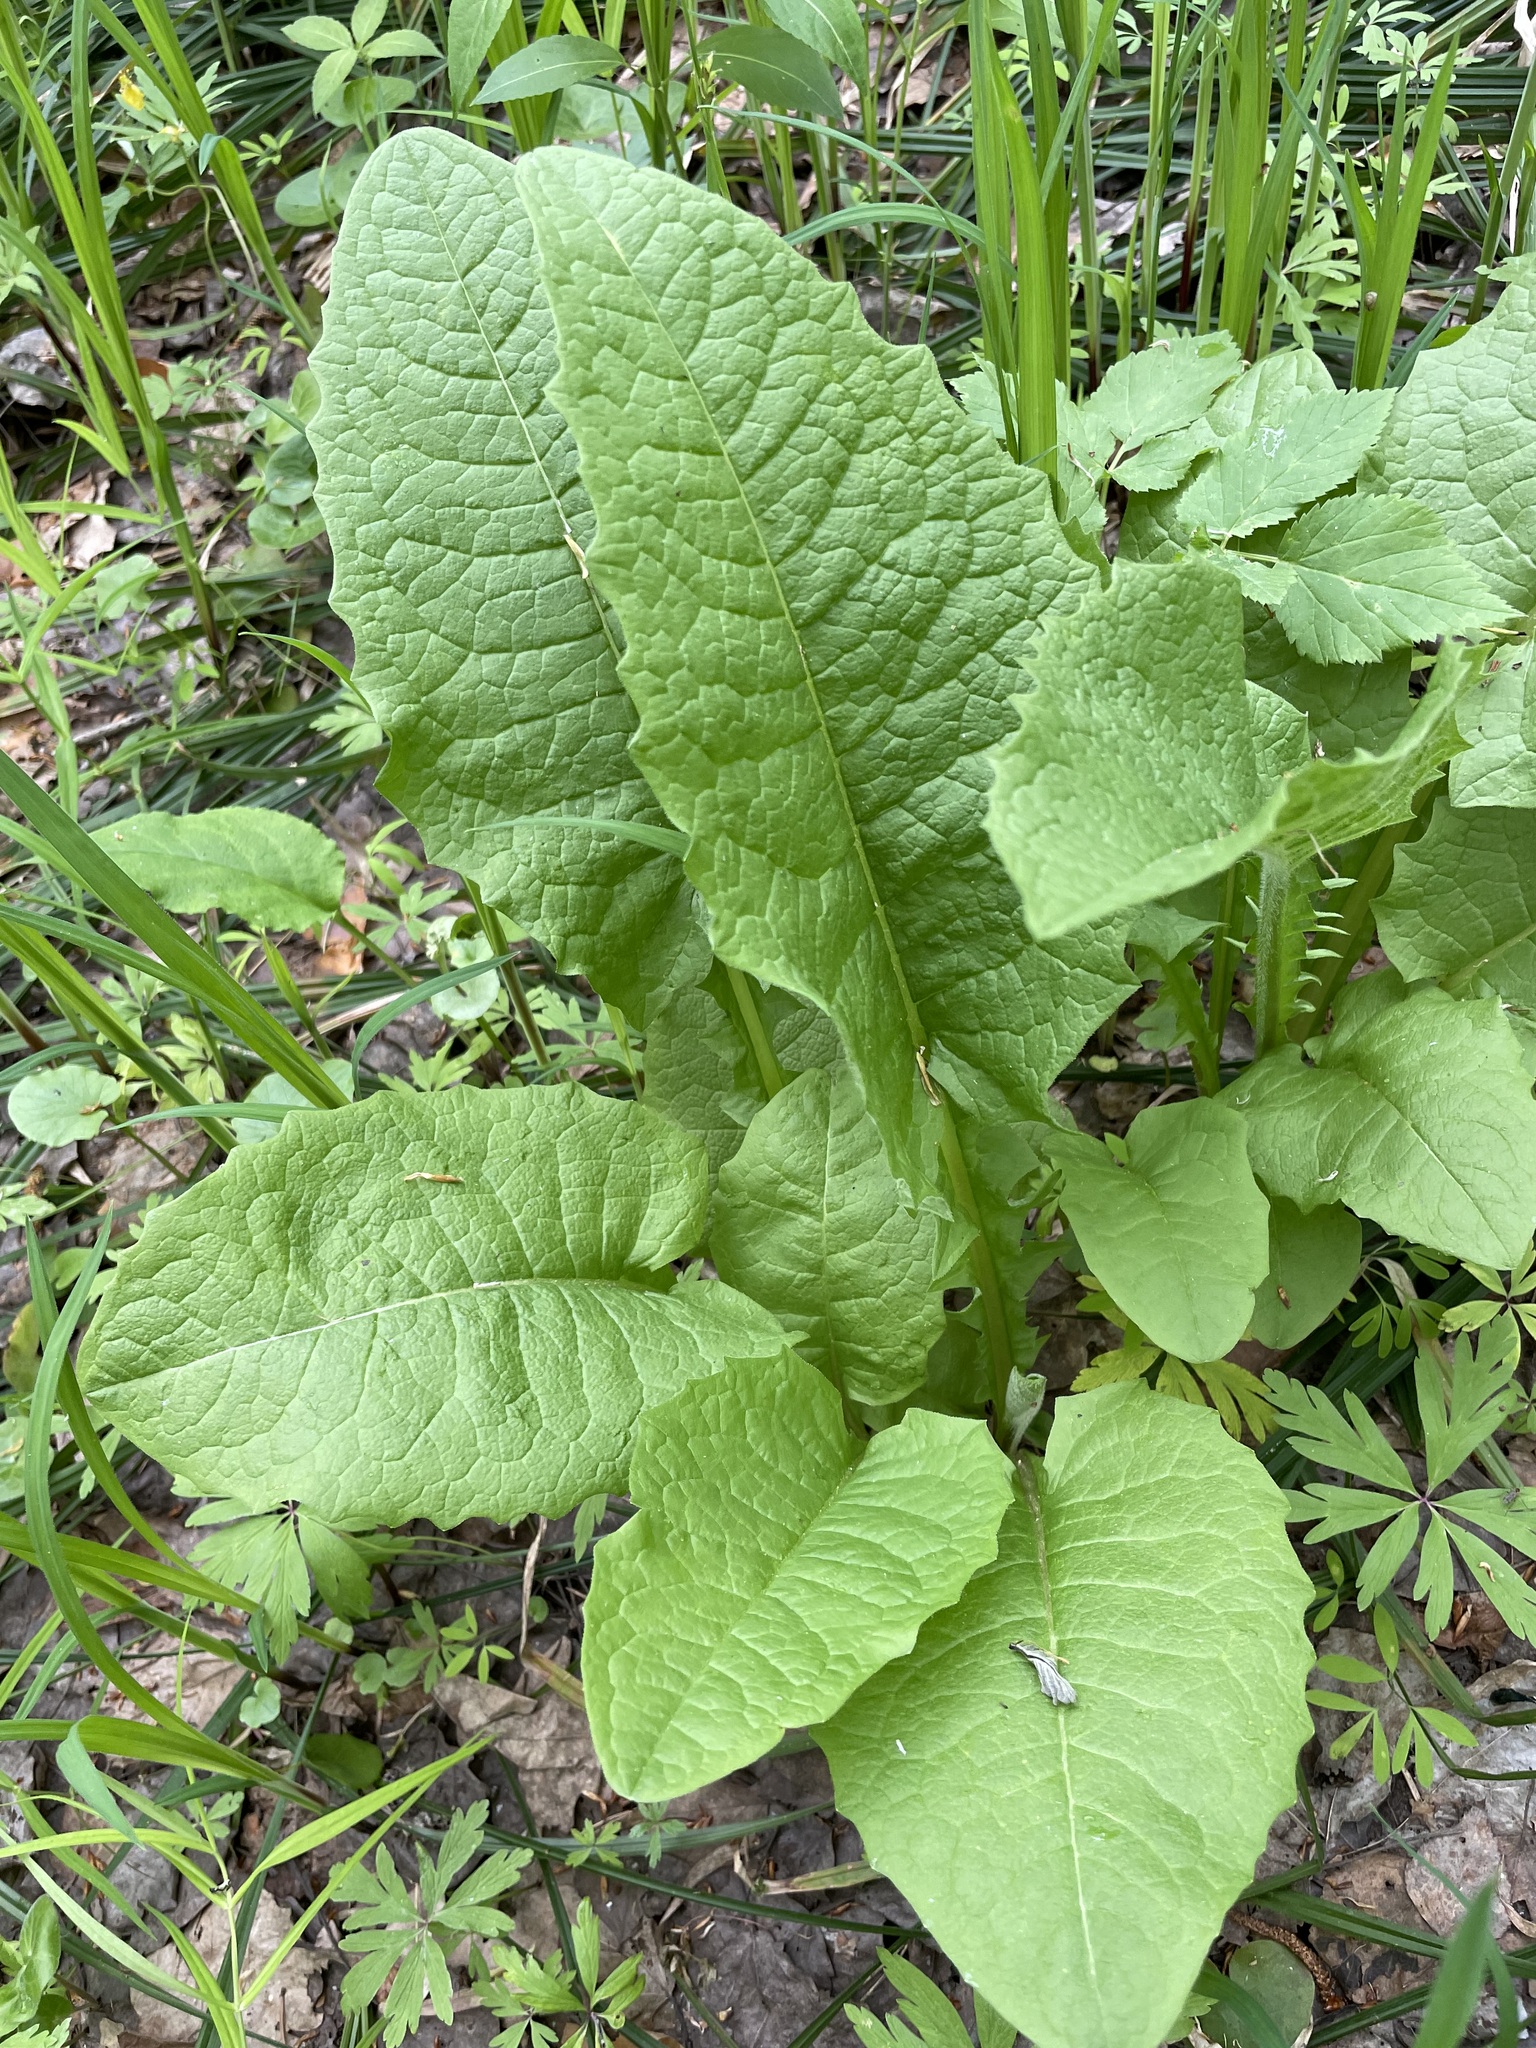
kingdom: Plantae
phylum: Tracheophyta
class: Magnoliopsida
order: Asterales
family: Asteraceae
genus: Crepis
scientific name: Crepis sibirica
